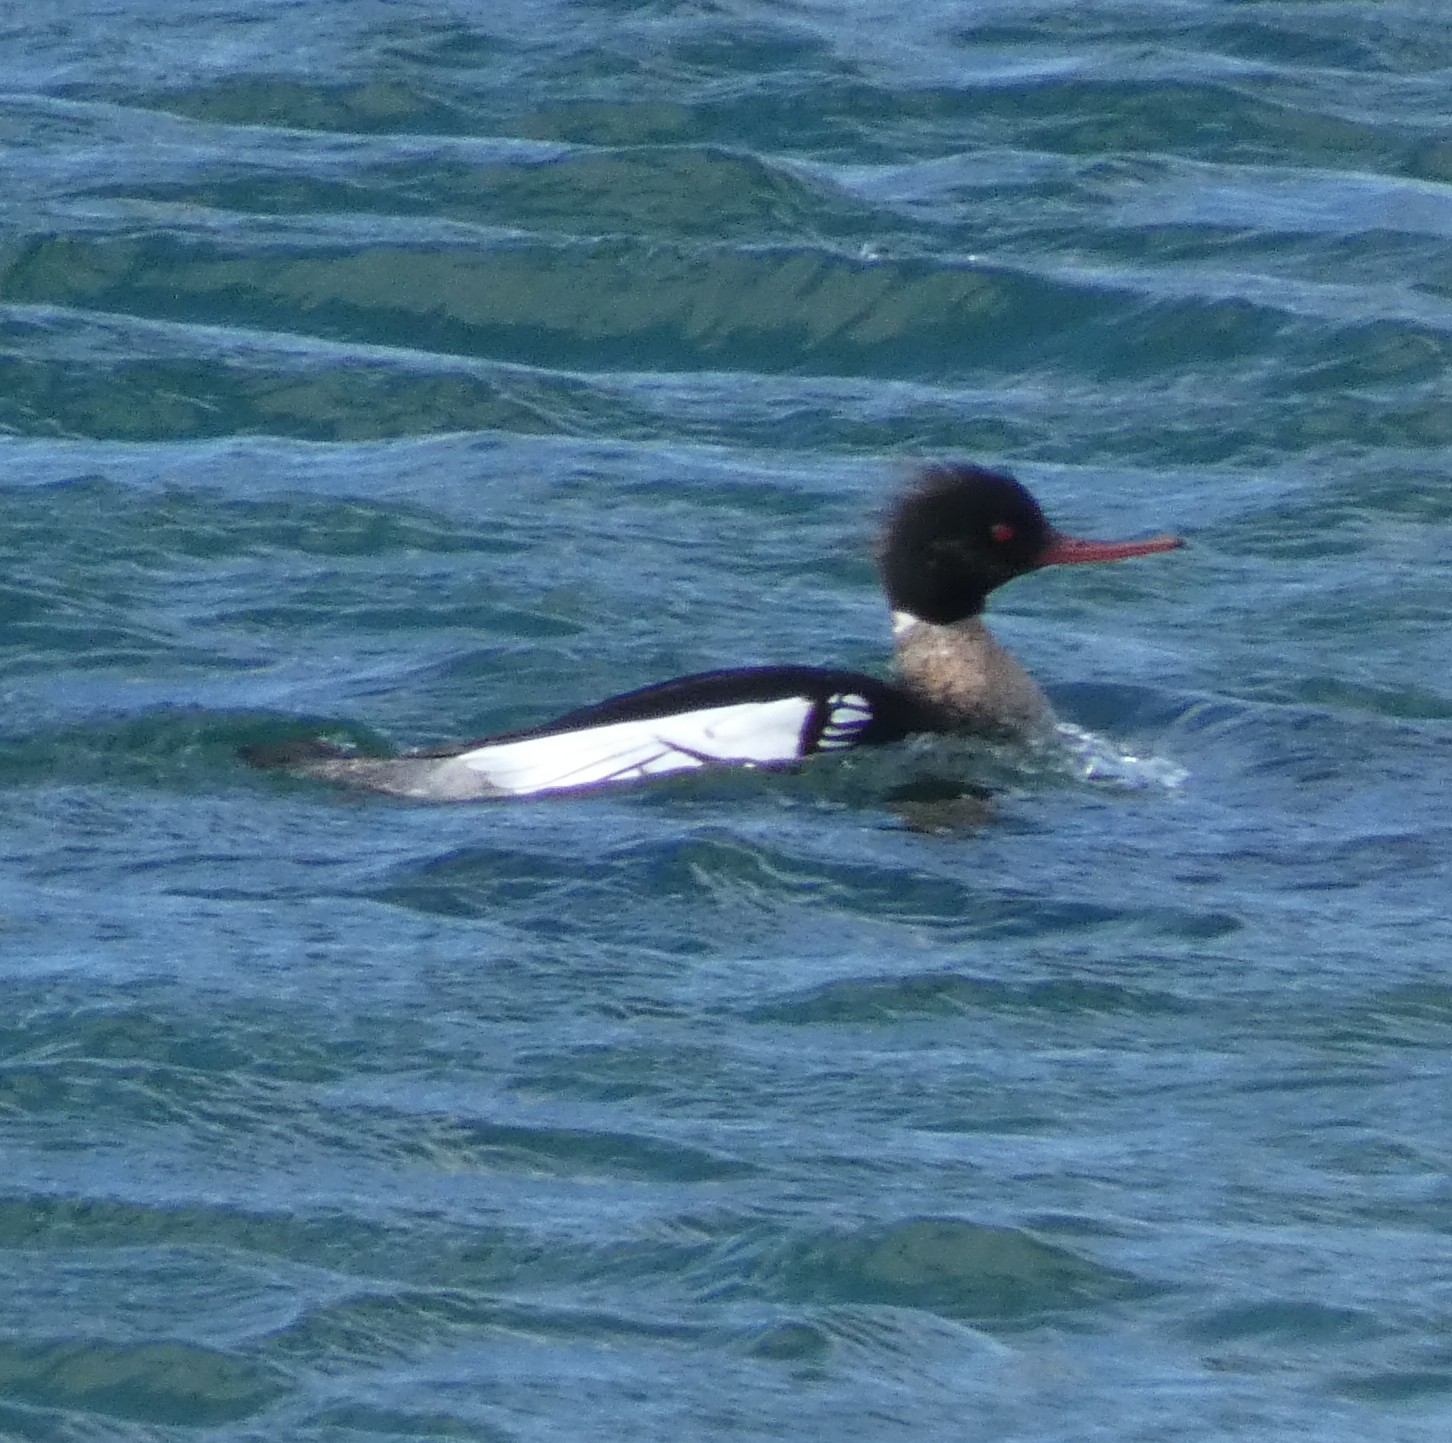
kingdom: Animalia
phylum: Chordata
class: Aves
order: Anseriformes
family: Anatidae
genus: Mergus
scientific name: Mergus serrator
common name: Red-breasted merganser
